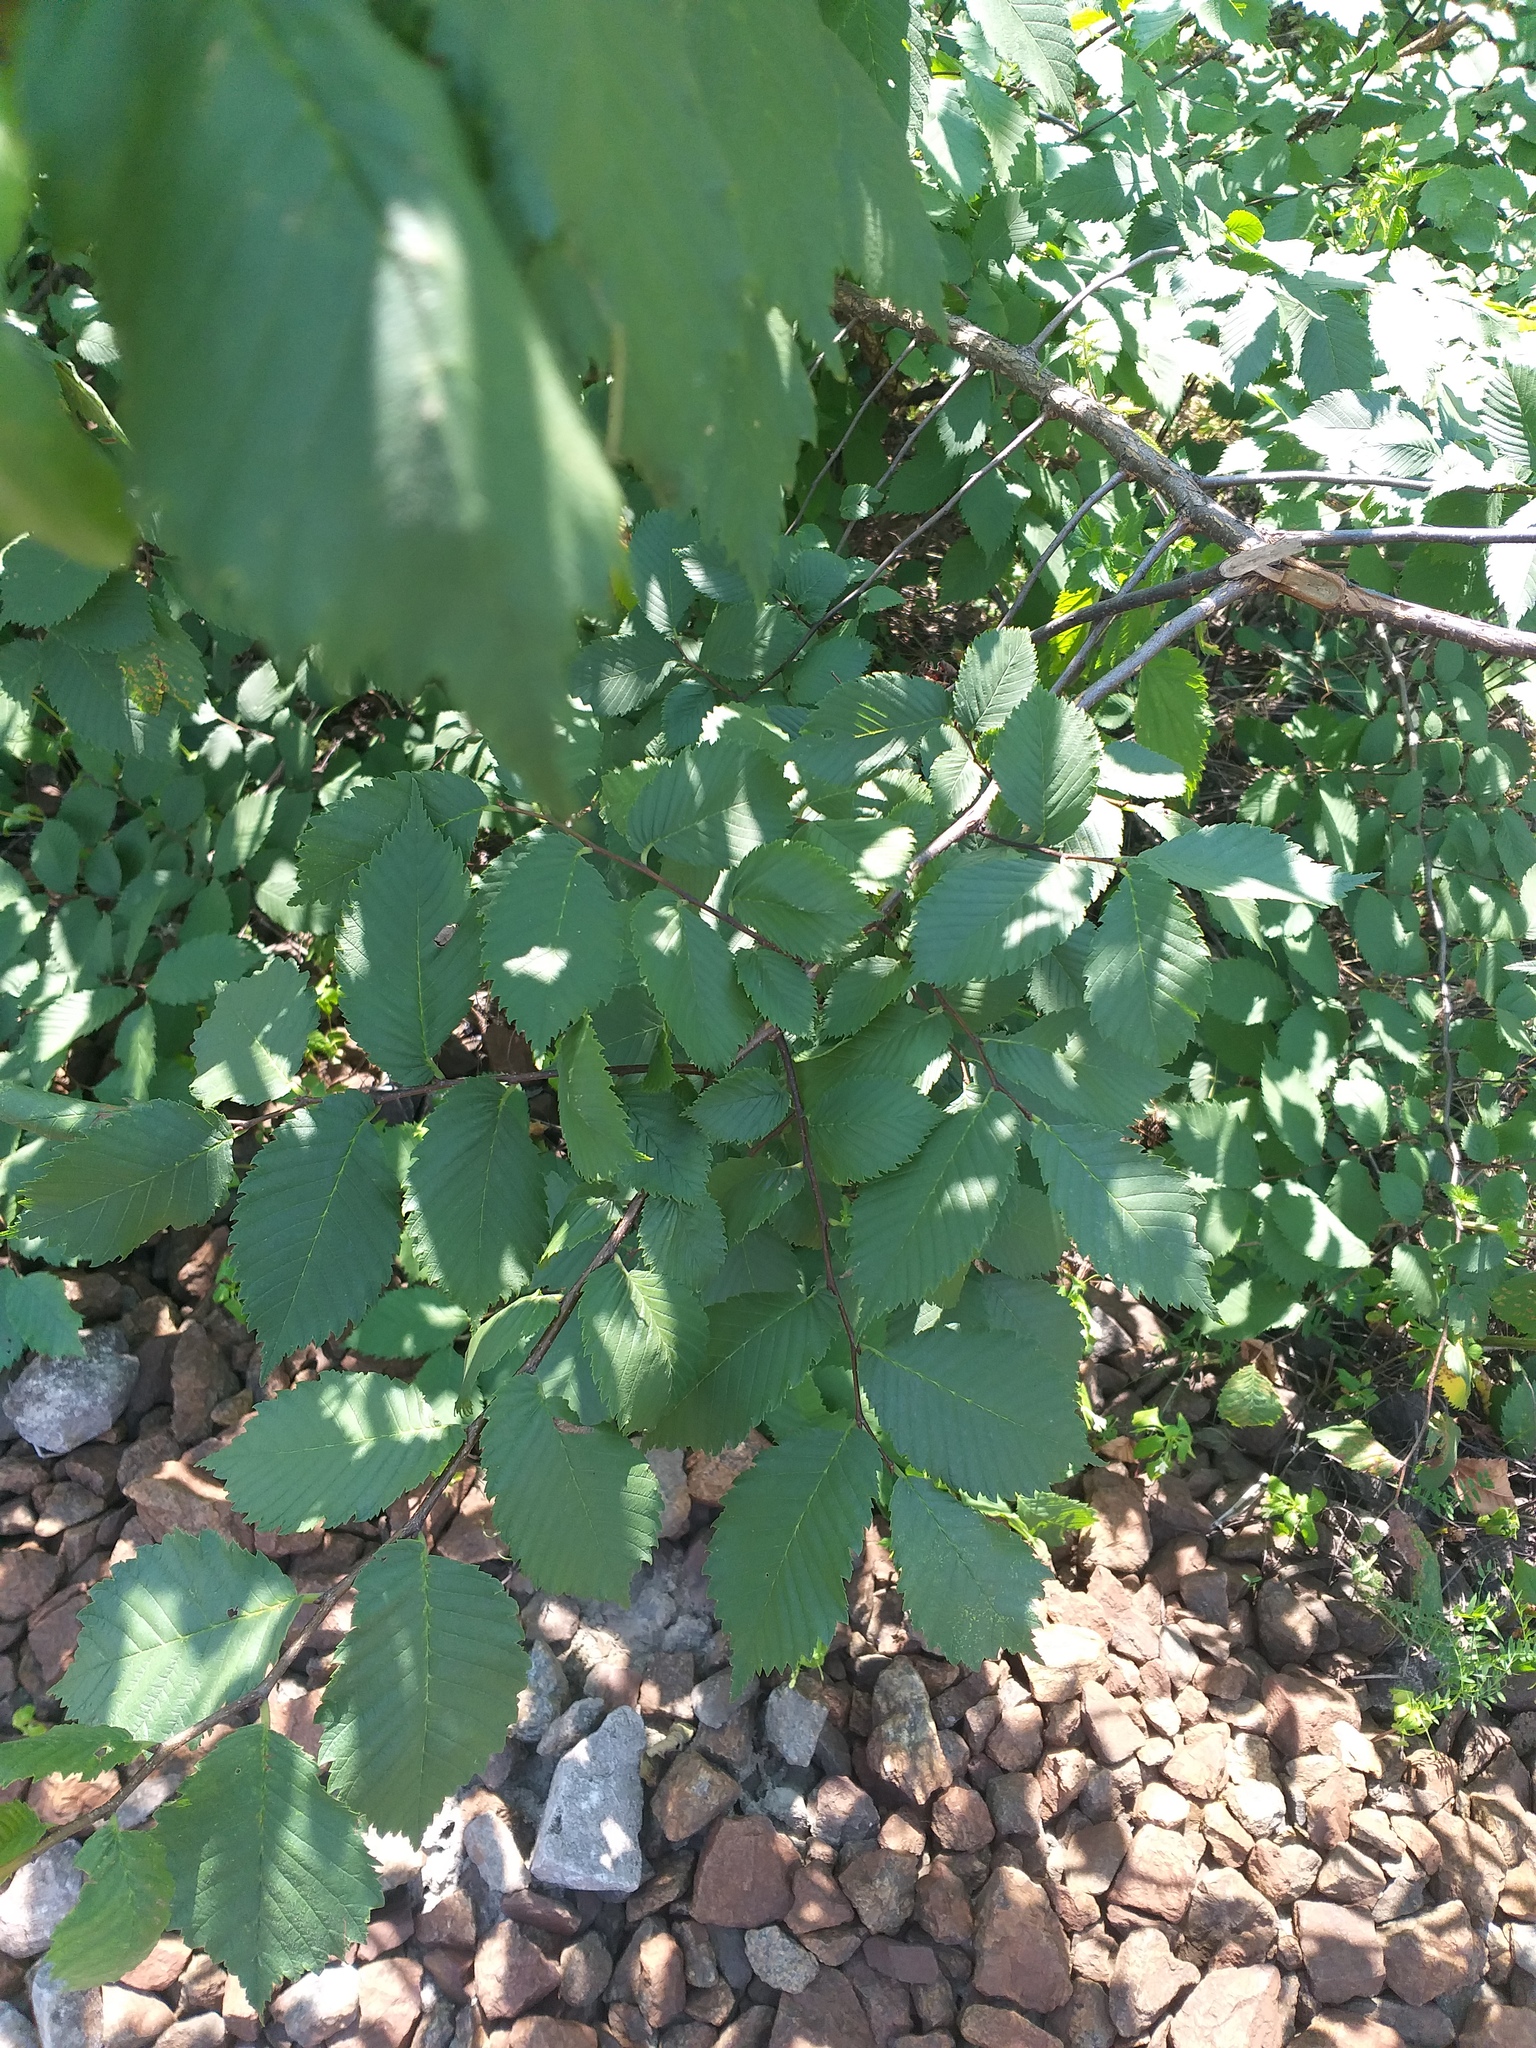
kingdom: Plantae
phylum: Tracheophyta
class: Magnoliopsida
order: Rosales
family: Ulmaceae
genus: Ulmus
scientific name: Ulmus laevis
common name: European white-elm
